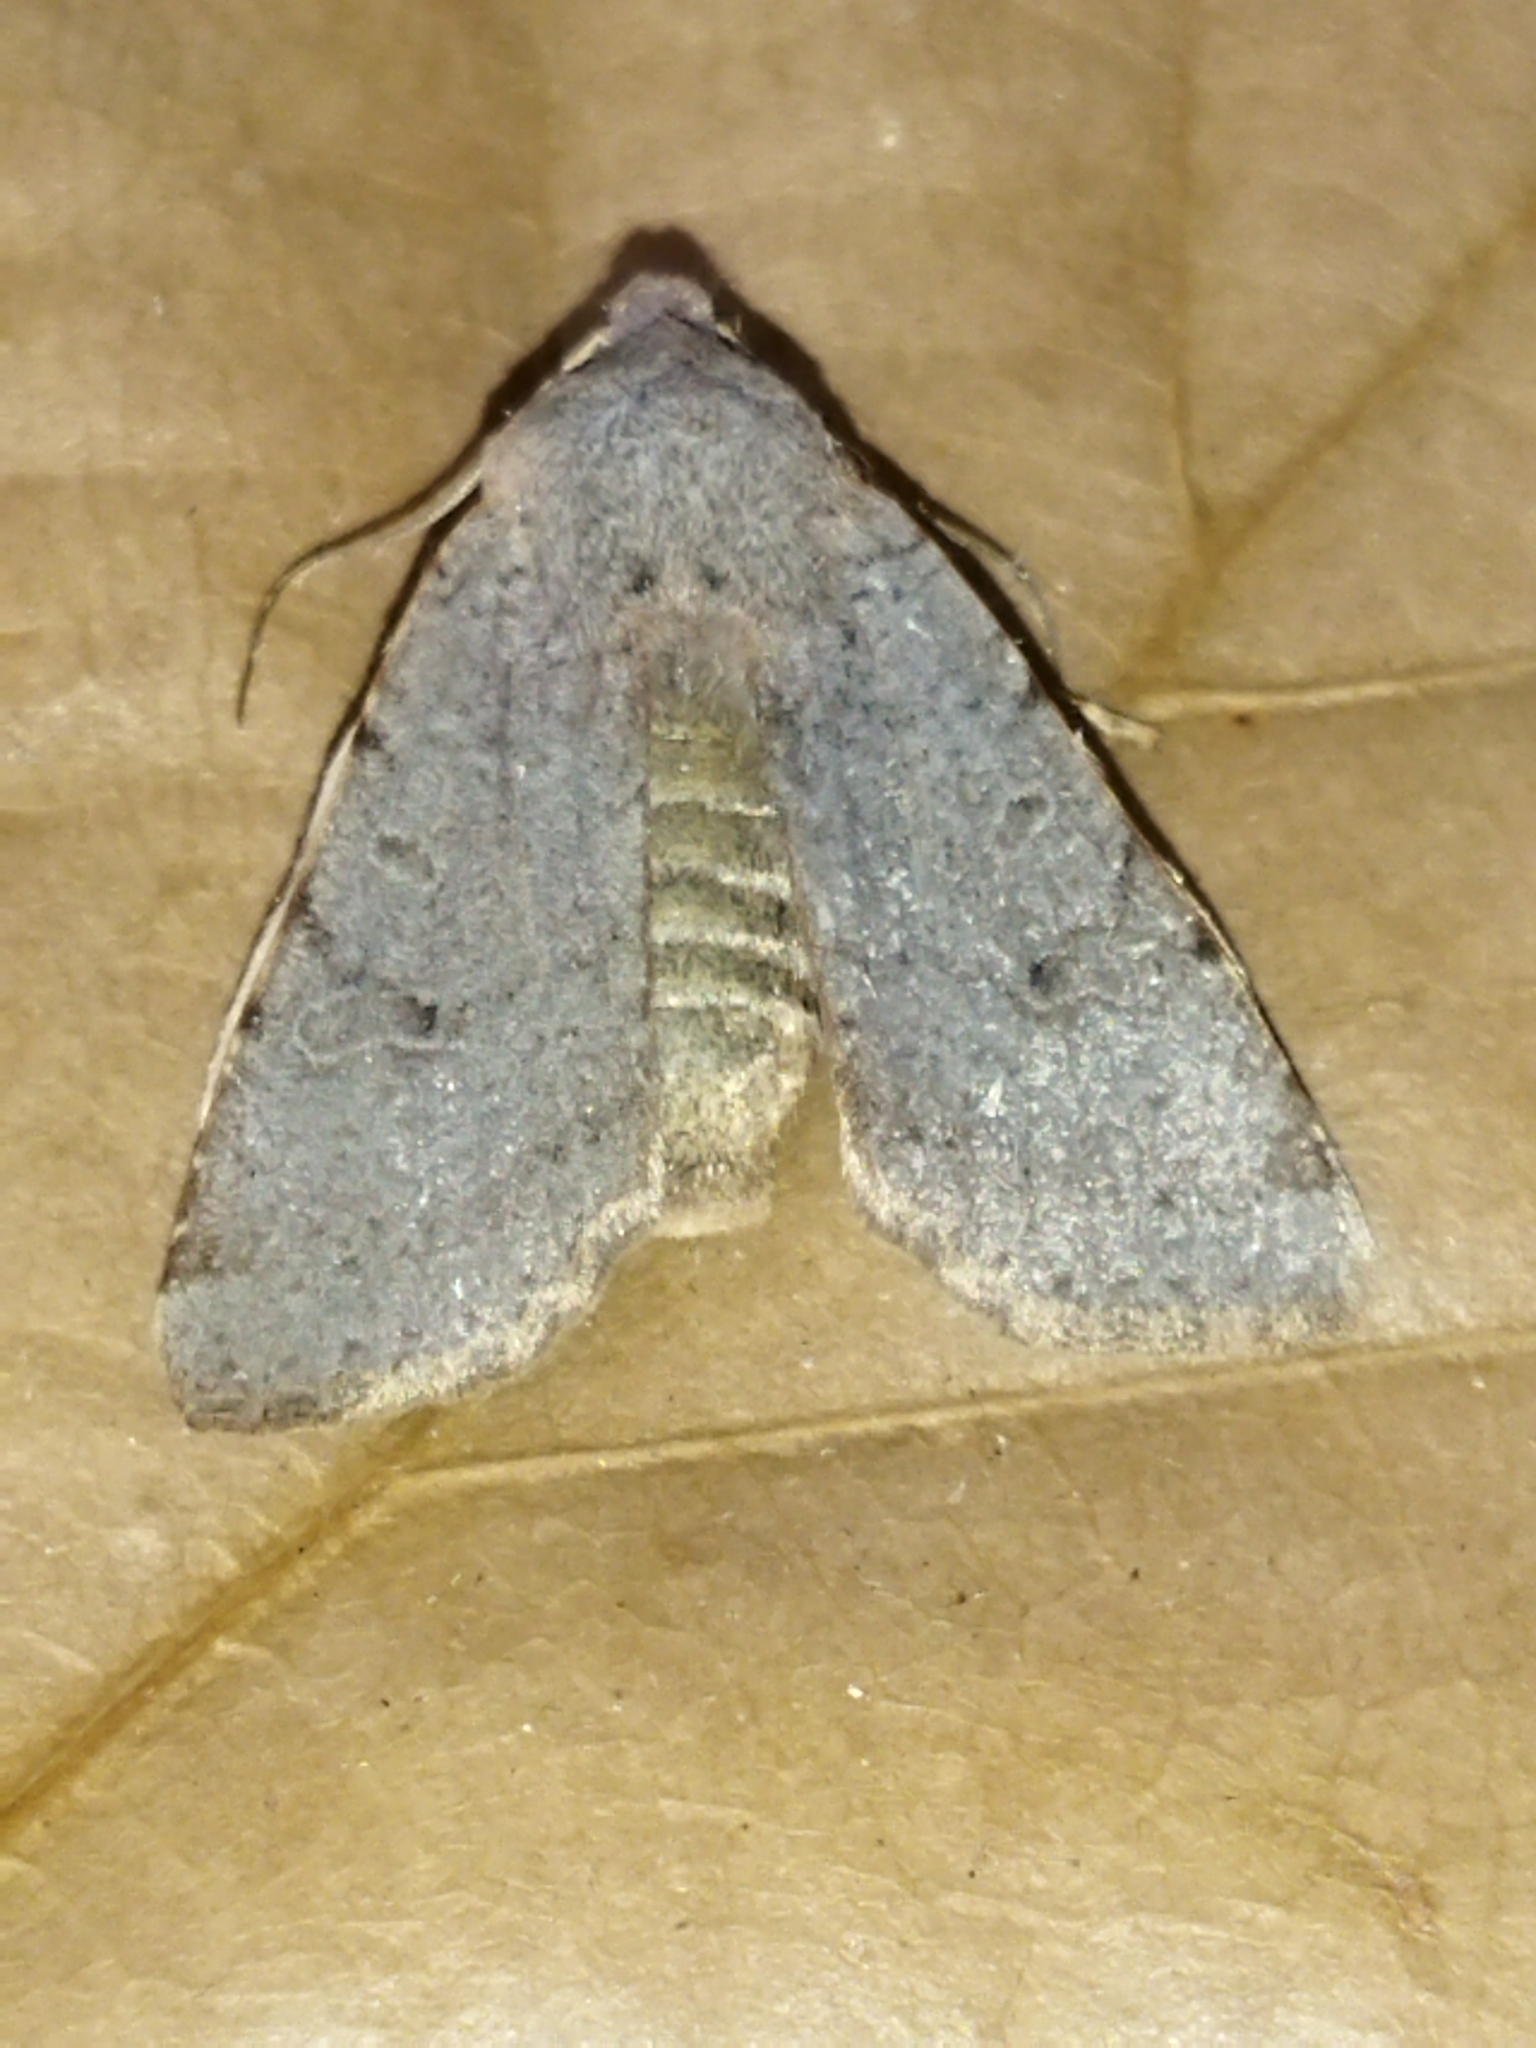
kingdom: Animalia
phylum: Arthropoda
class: Insecta
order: Lepidoptera
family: Noctuidae
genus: Agrochola
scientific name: Agrochola lychnidis
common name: Beaded chestnut
